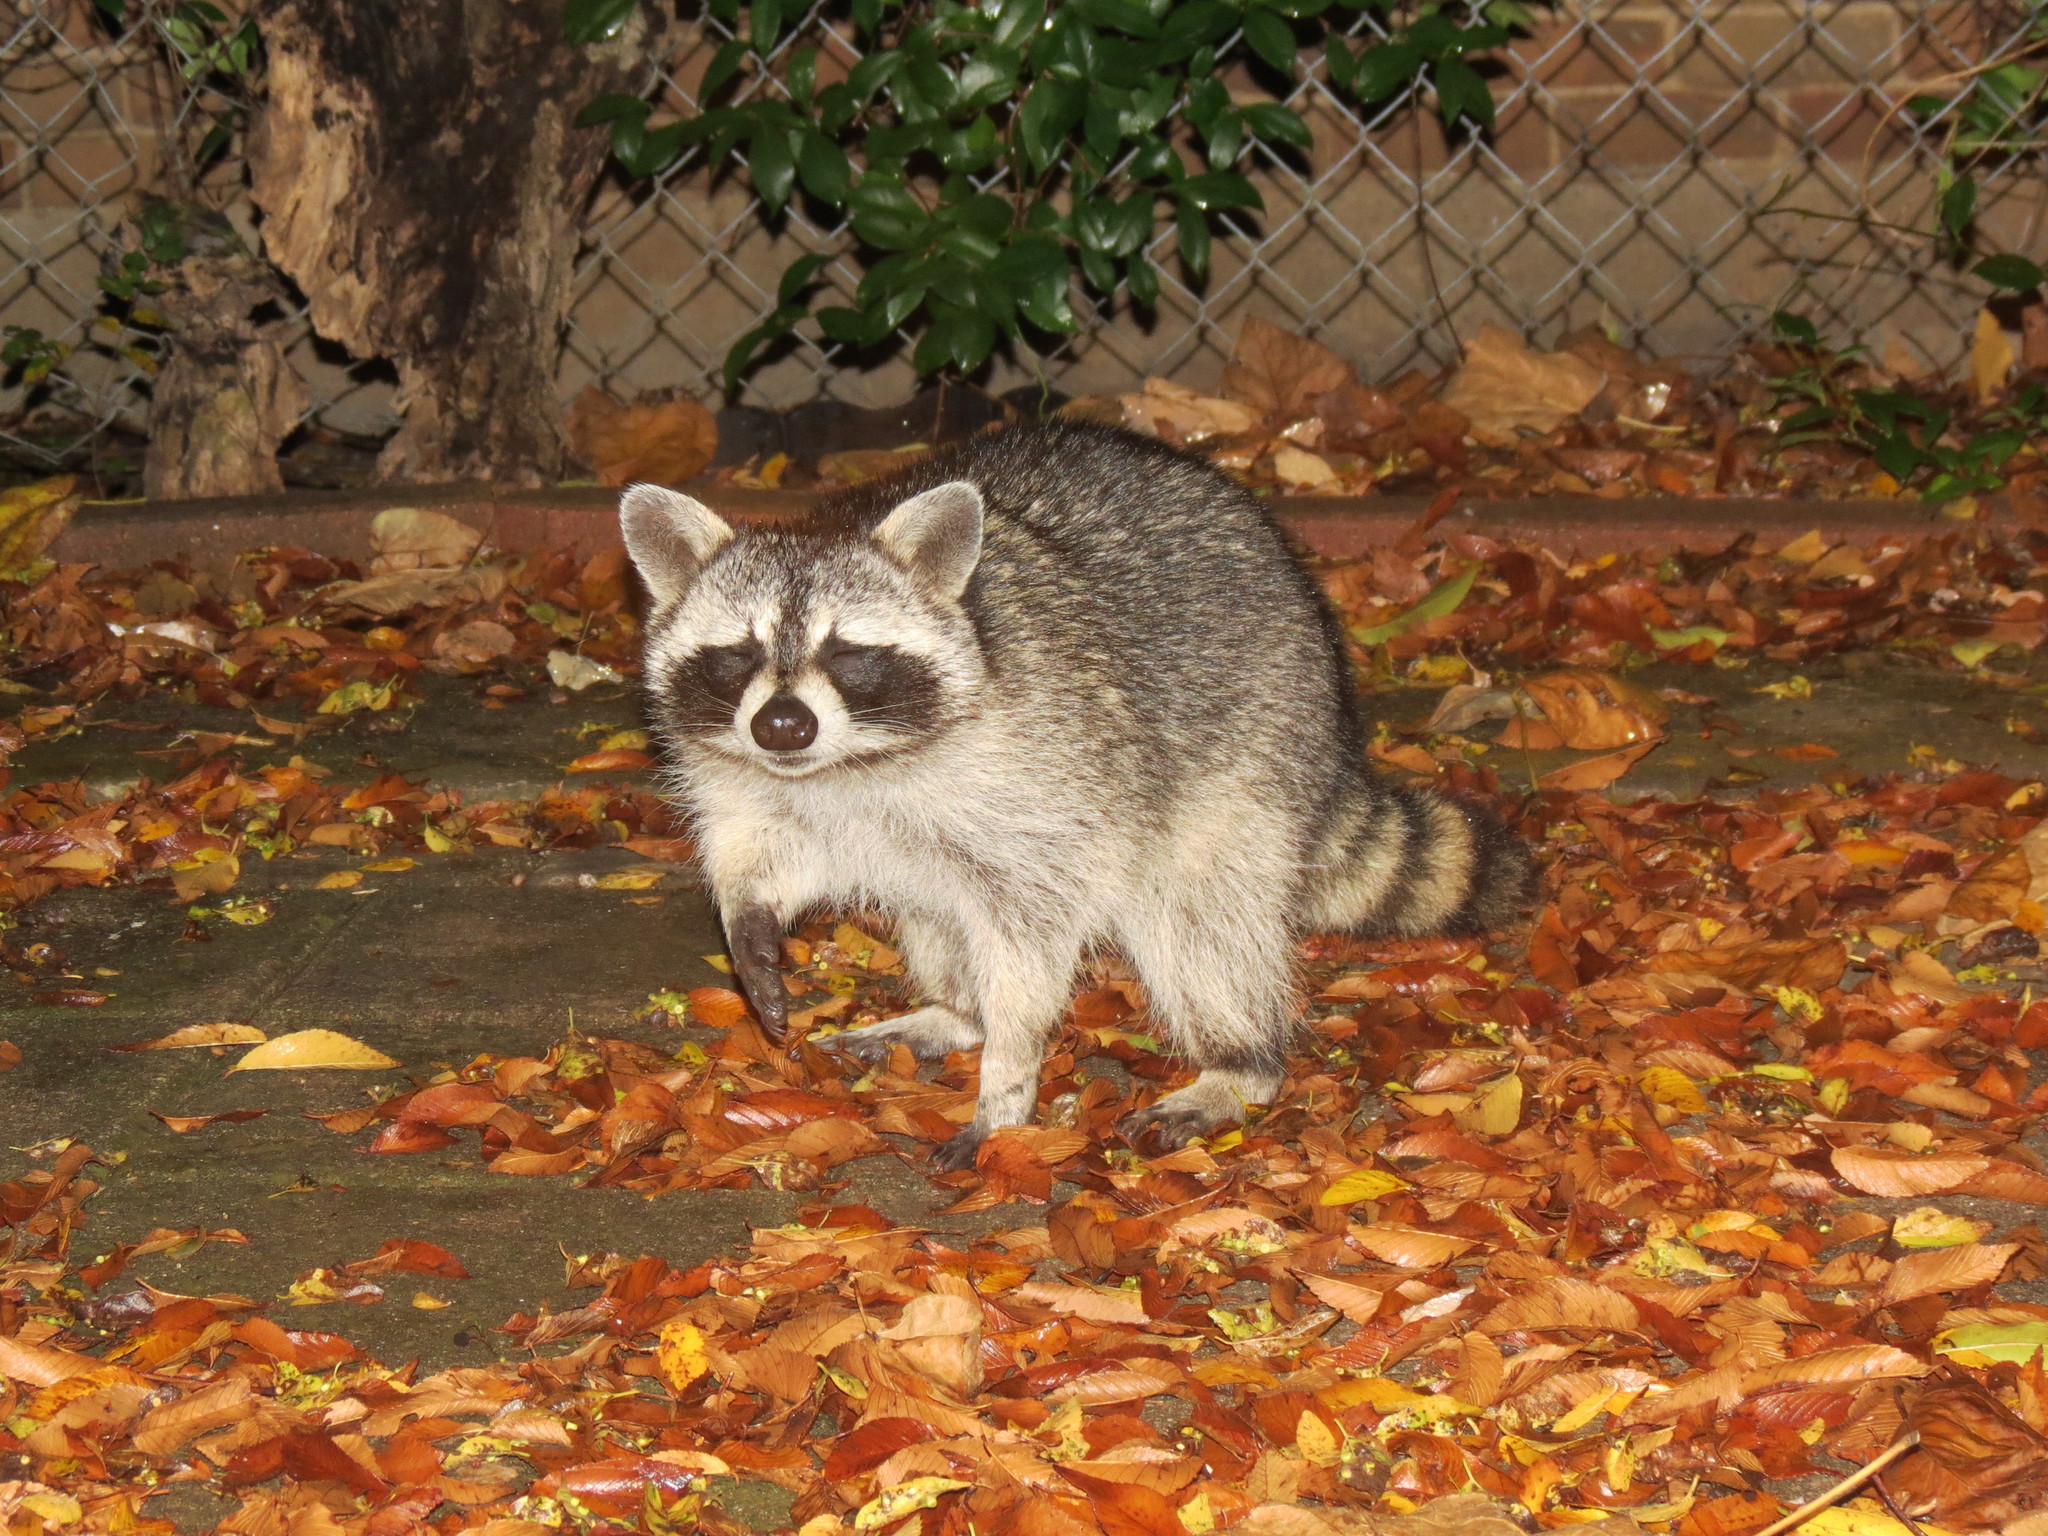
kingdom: Animalia
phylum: Chordata
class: Mammalia
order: Carnivora
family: Procyonidae
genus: Procyon
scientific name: Procyon lotor
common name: Raccoon
